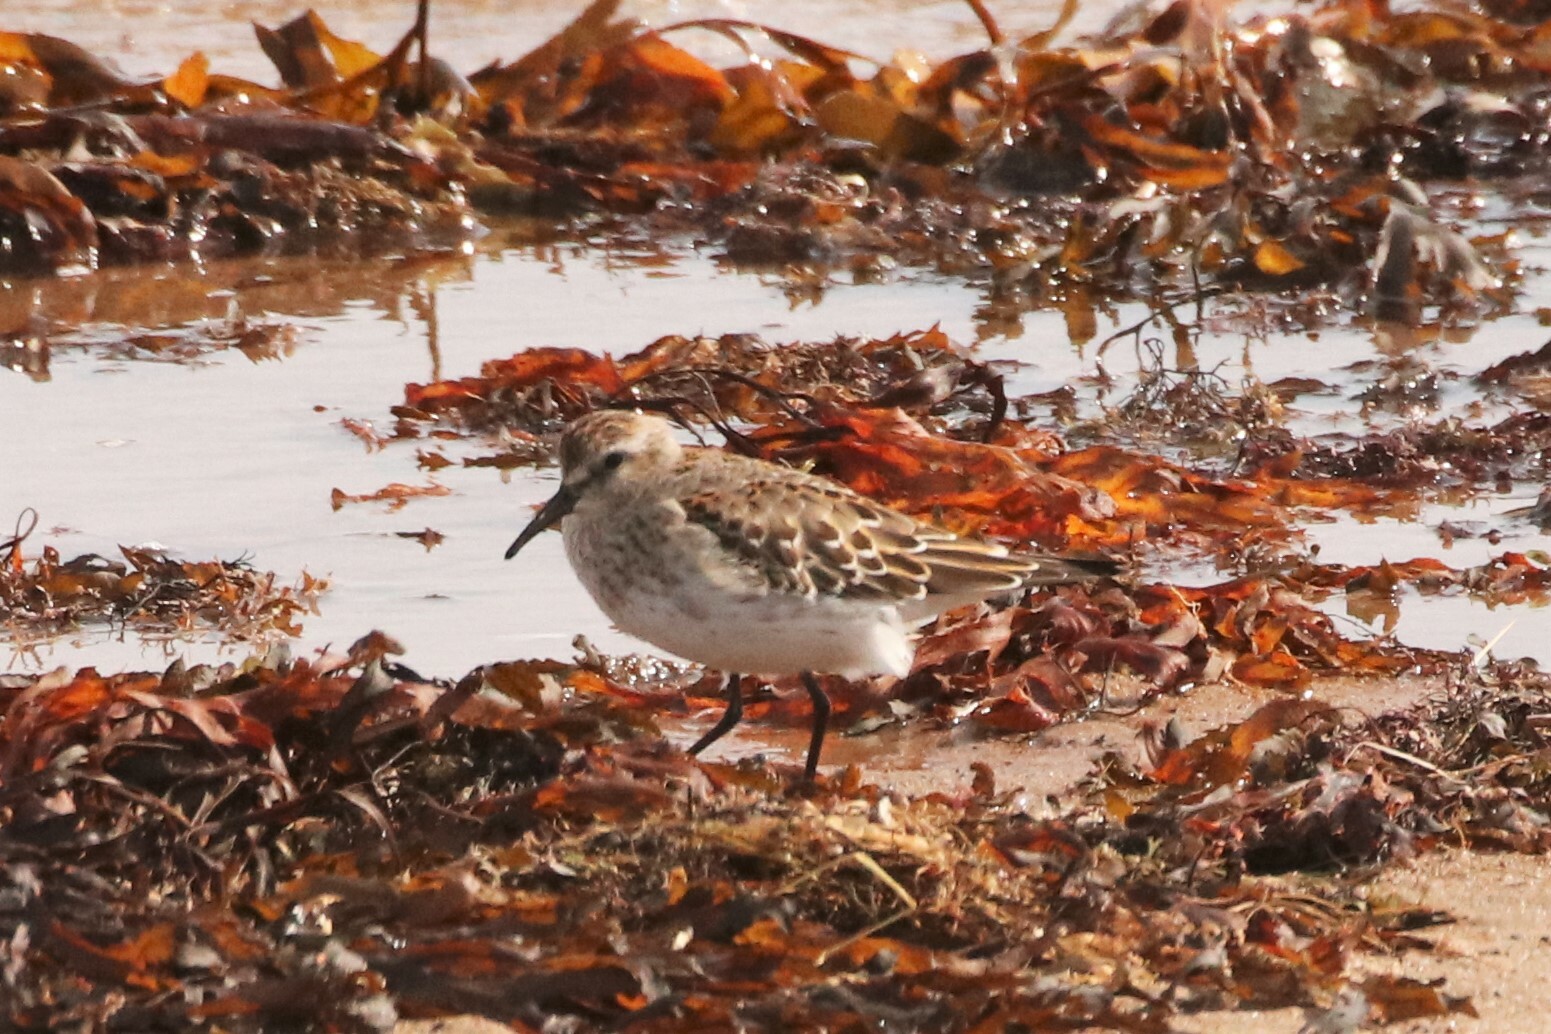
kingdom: Animalia
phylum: Chordata
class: Aves
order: Charadriiformes
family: Scolopacidae
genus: Calidris
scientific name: Calidris fuscicollis
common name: White-rumped sandpiper
